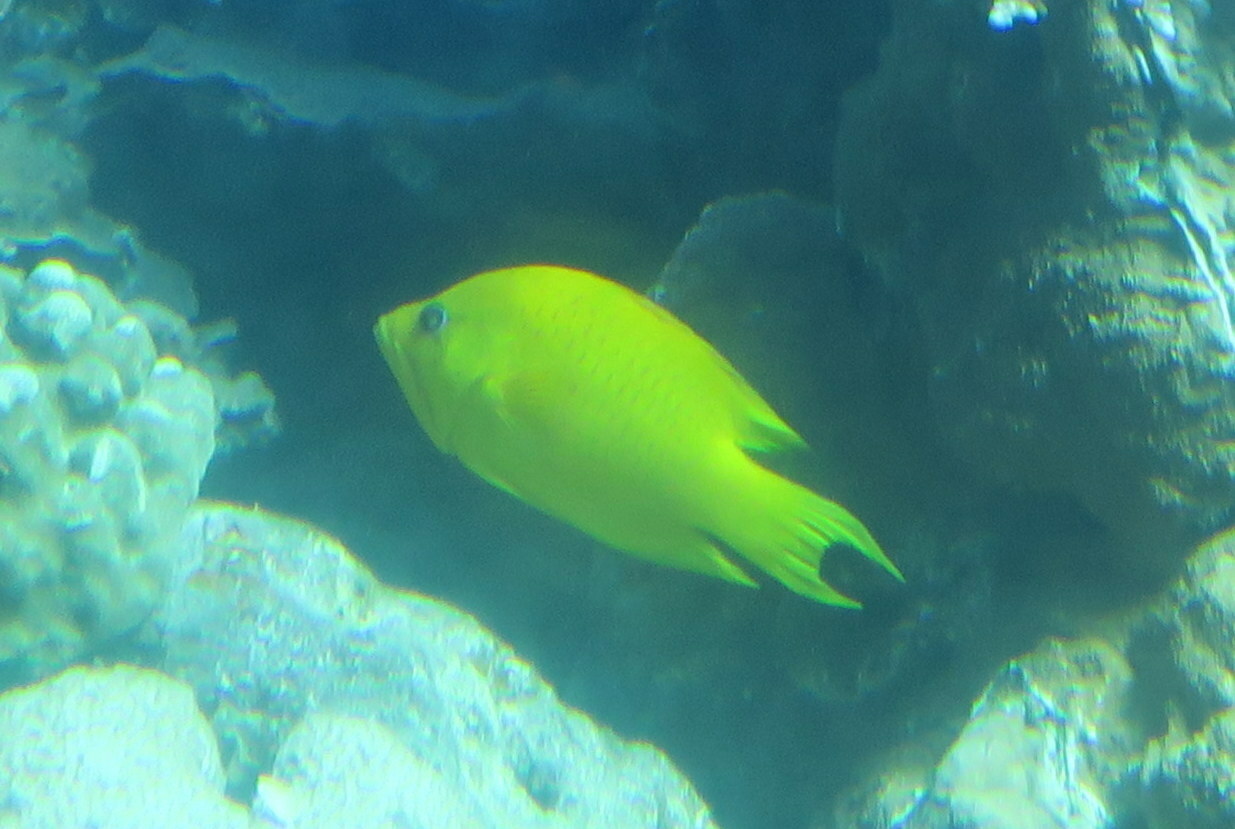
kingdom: Animalia
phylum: Chordata
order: Perciformes
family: Labridae
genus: Epibulus
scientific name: Epibulus insidiator
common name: Slingjaw wrasse
